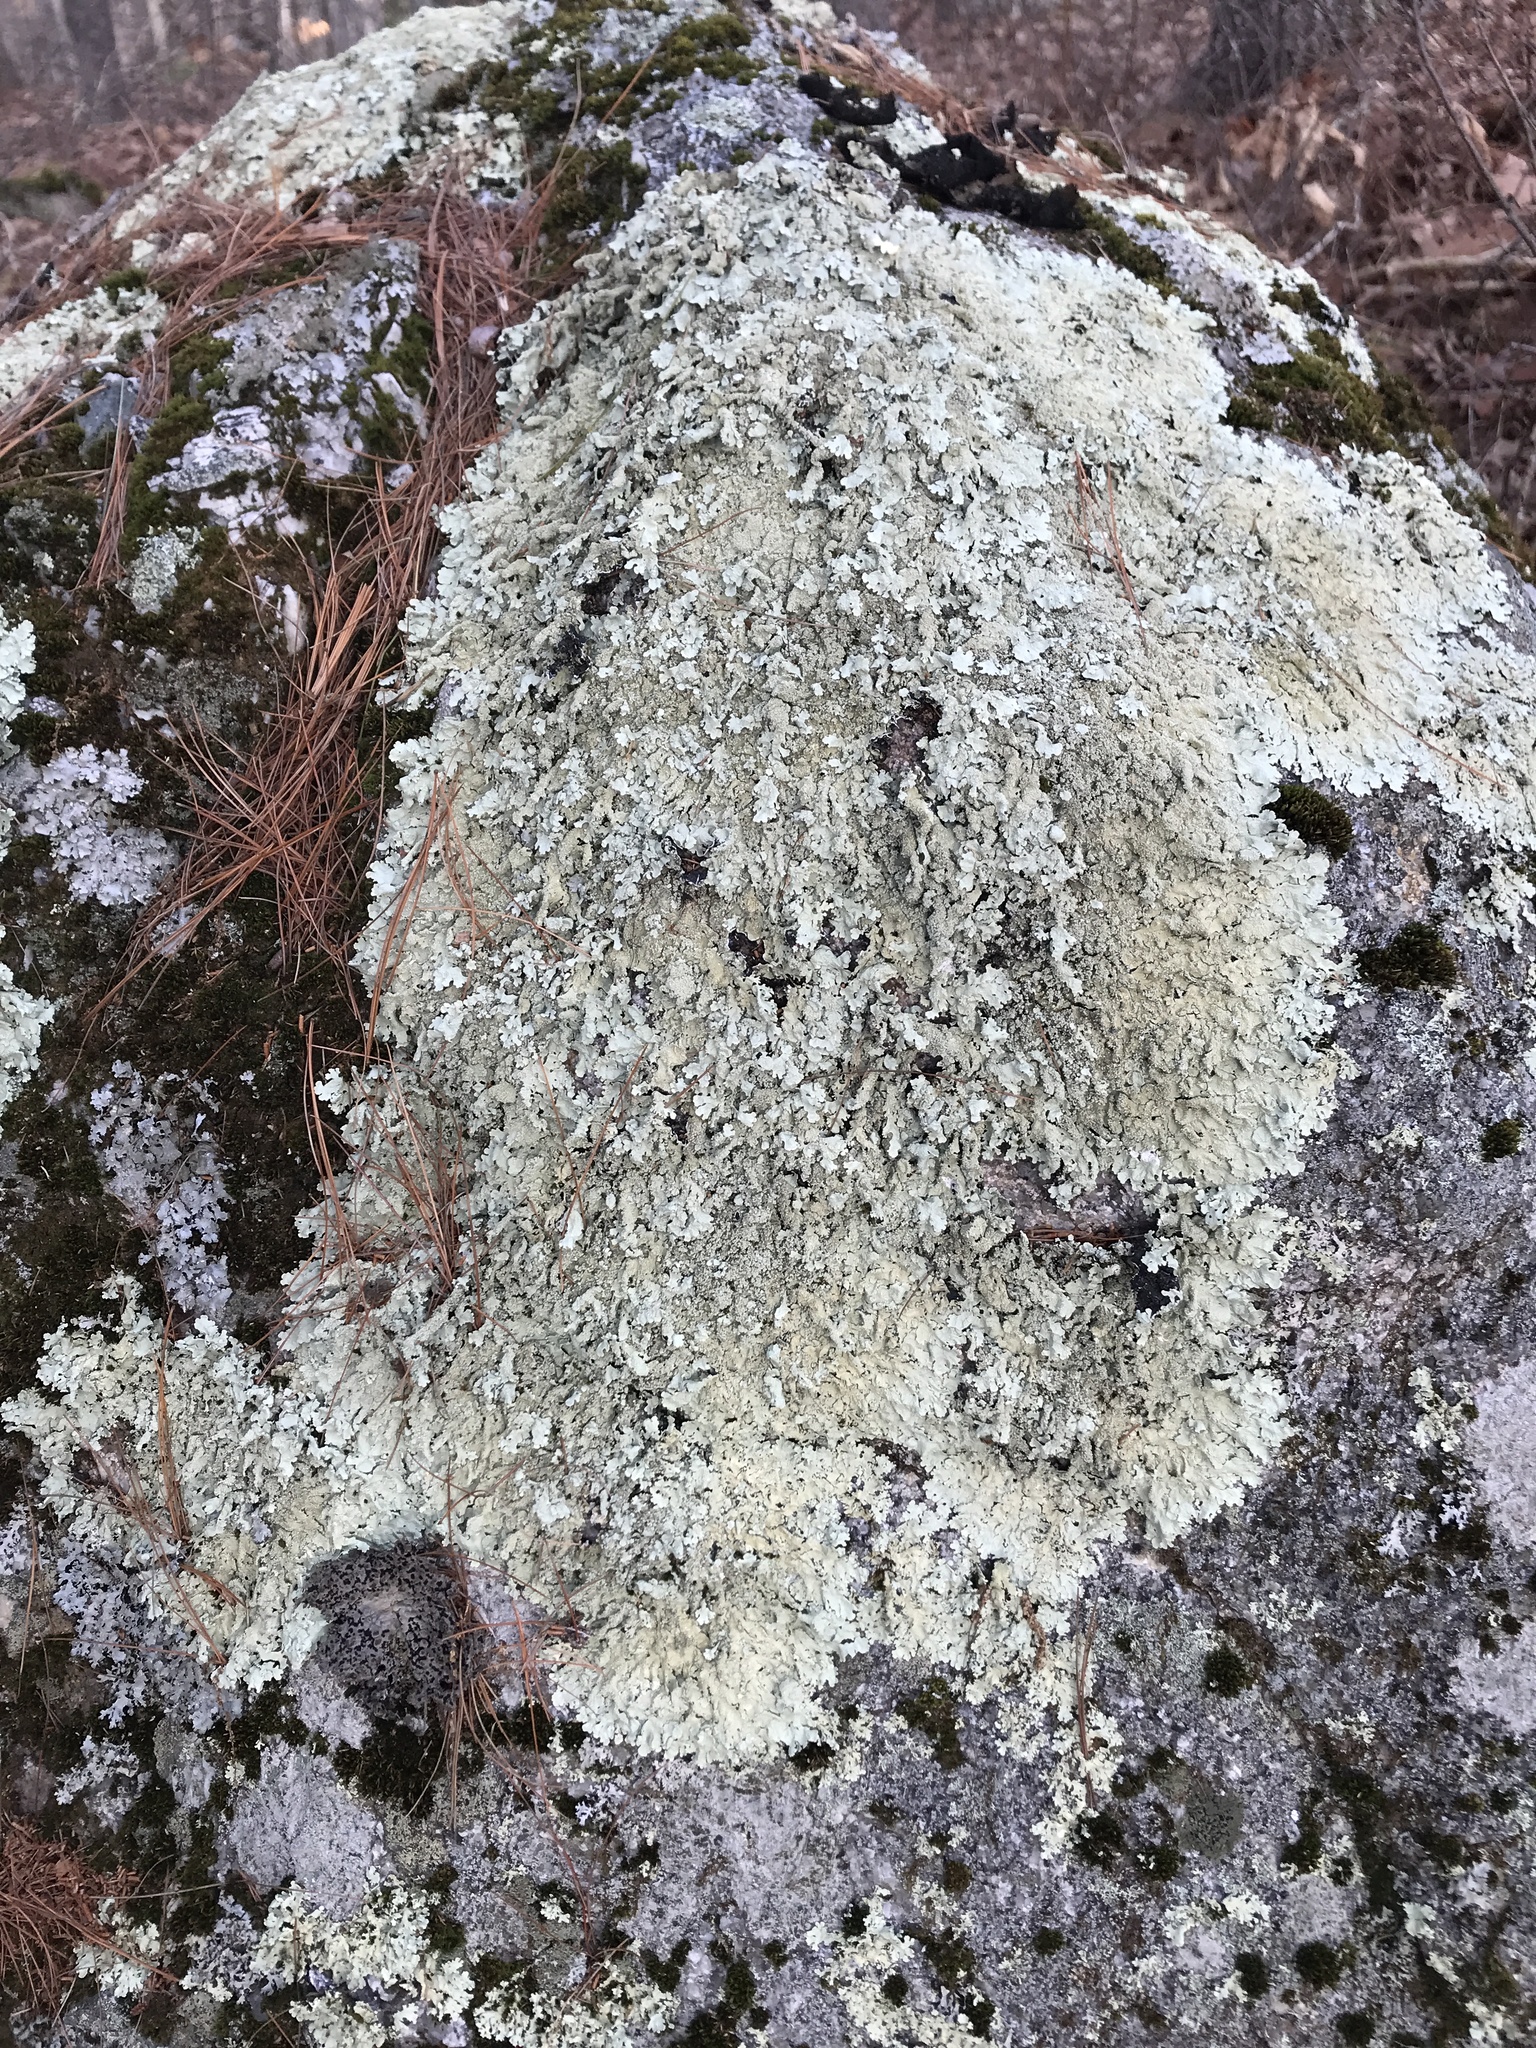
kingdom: Fungi
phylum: Ascomycota
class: Lecanoromycetes
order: Lecanorales
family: Parmeliaceae
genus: Flavoparmelia
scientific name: Flavoparmelia baltimorensis
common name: Rock greenshield
